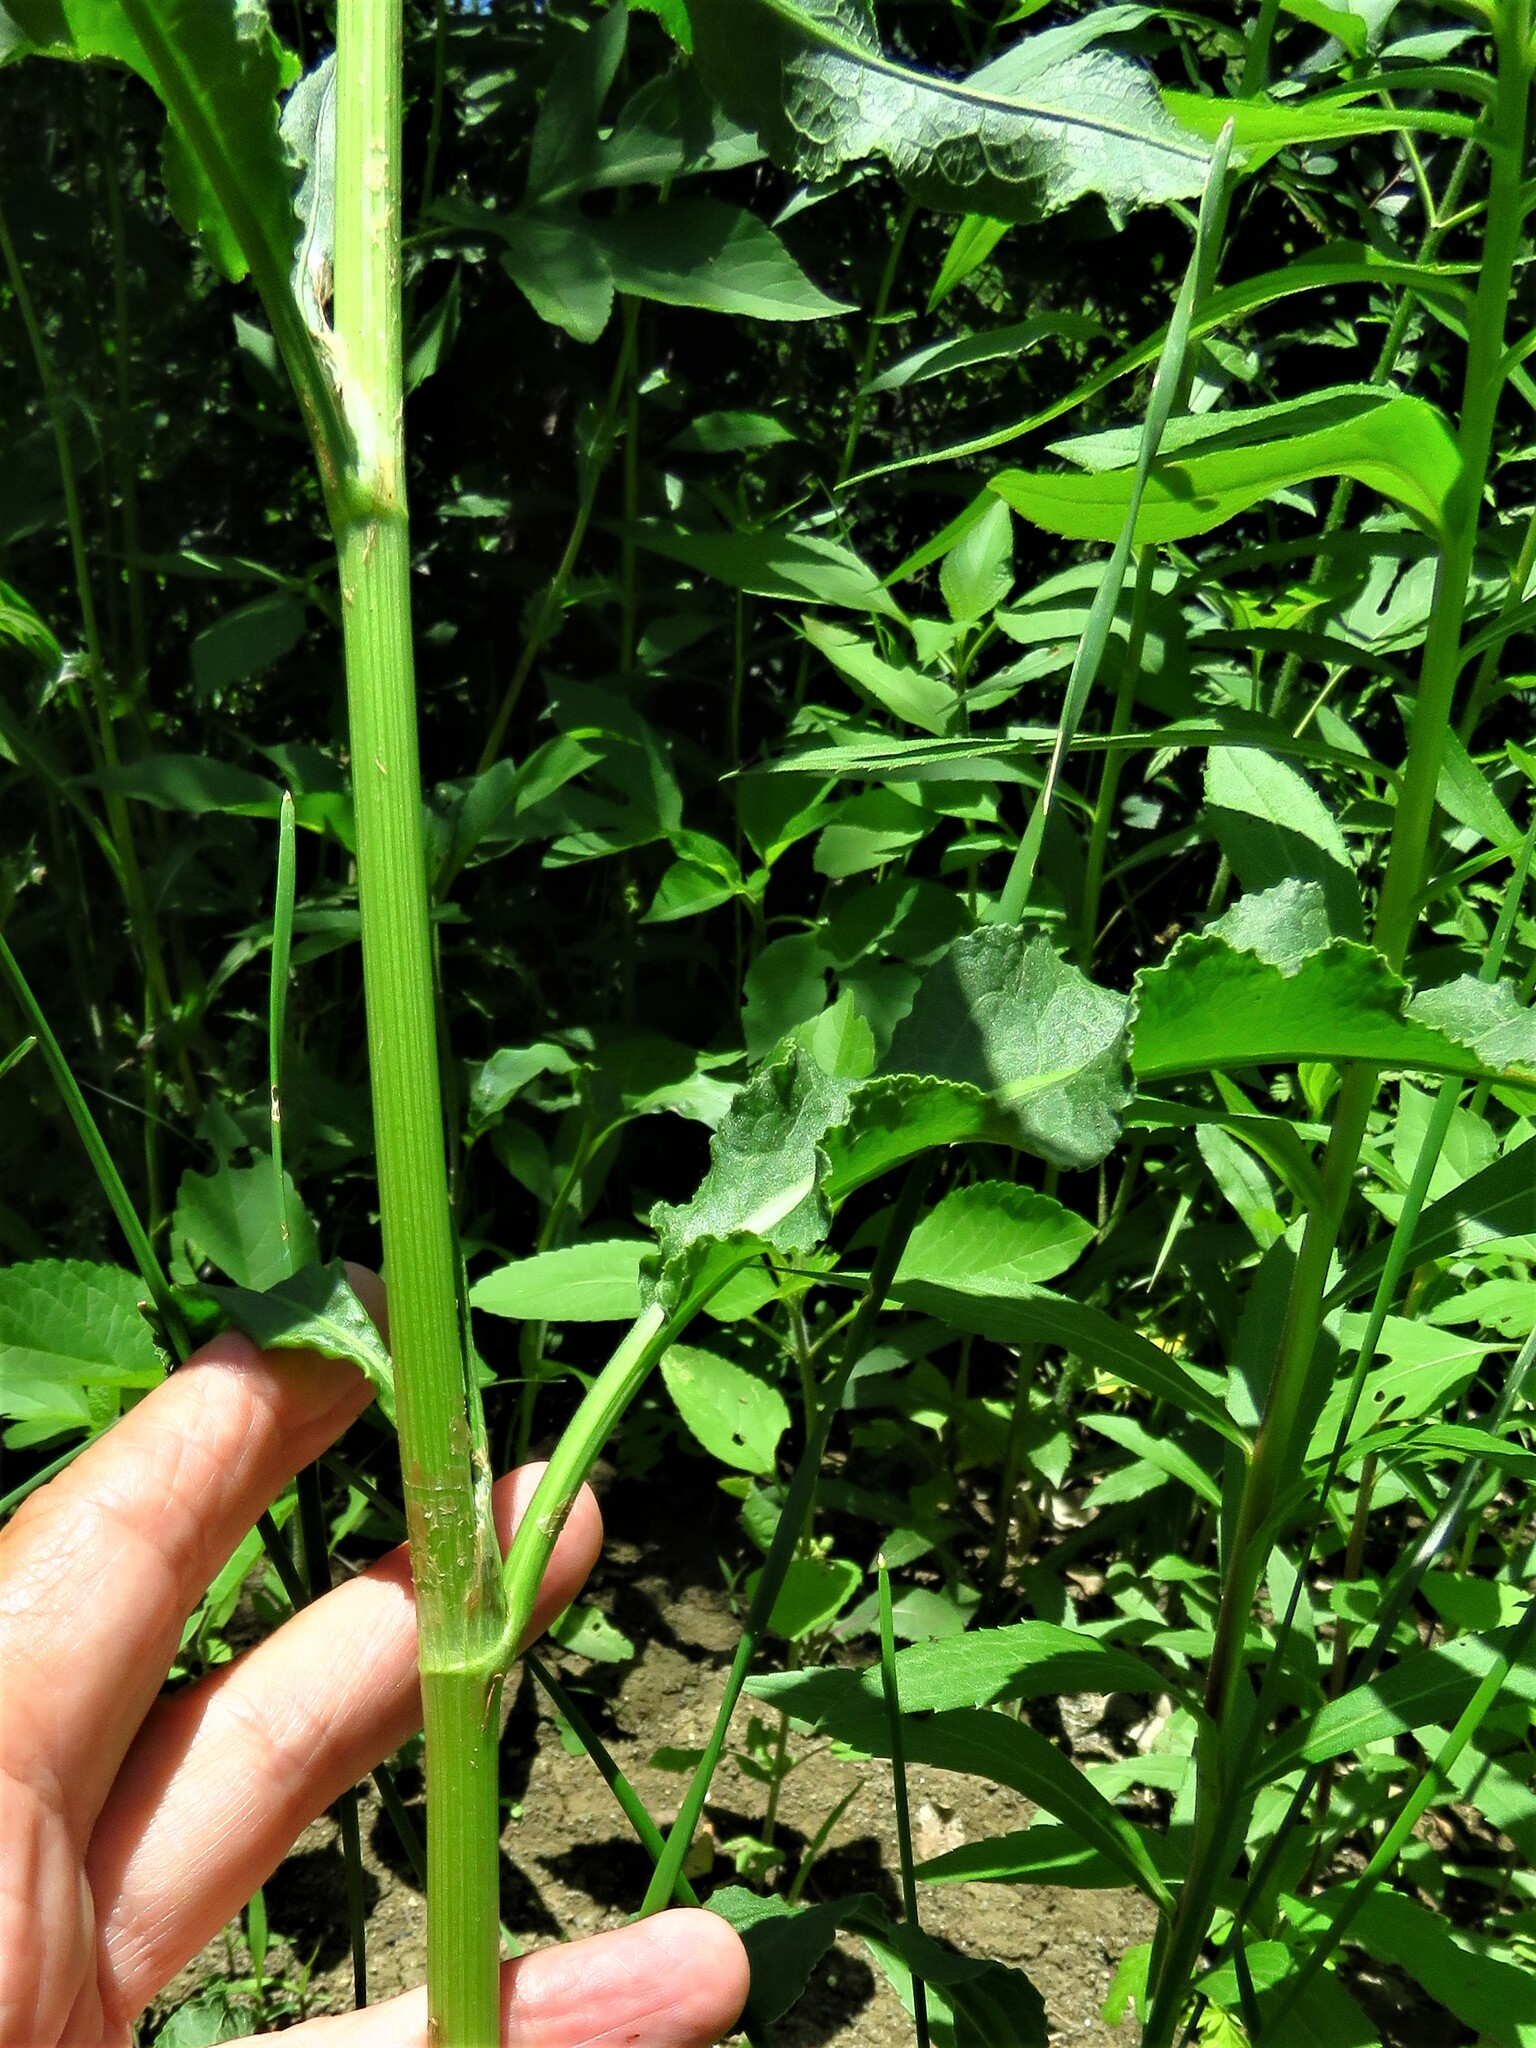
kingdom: Plantae
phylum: Tracheophyta
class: Magnoliopsida
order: Caryophyllales
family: Polygonaceae
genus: Rumex
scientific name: Rumex crispus
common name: Curled dock
